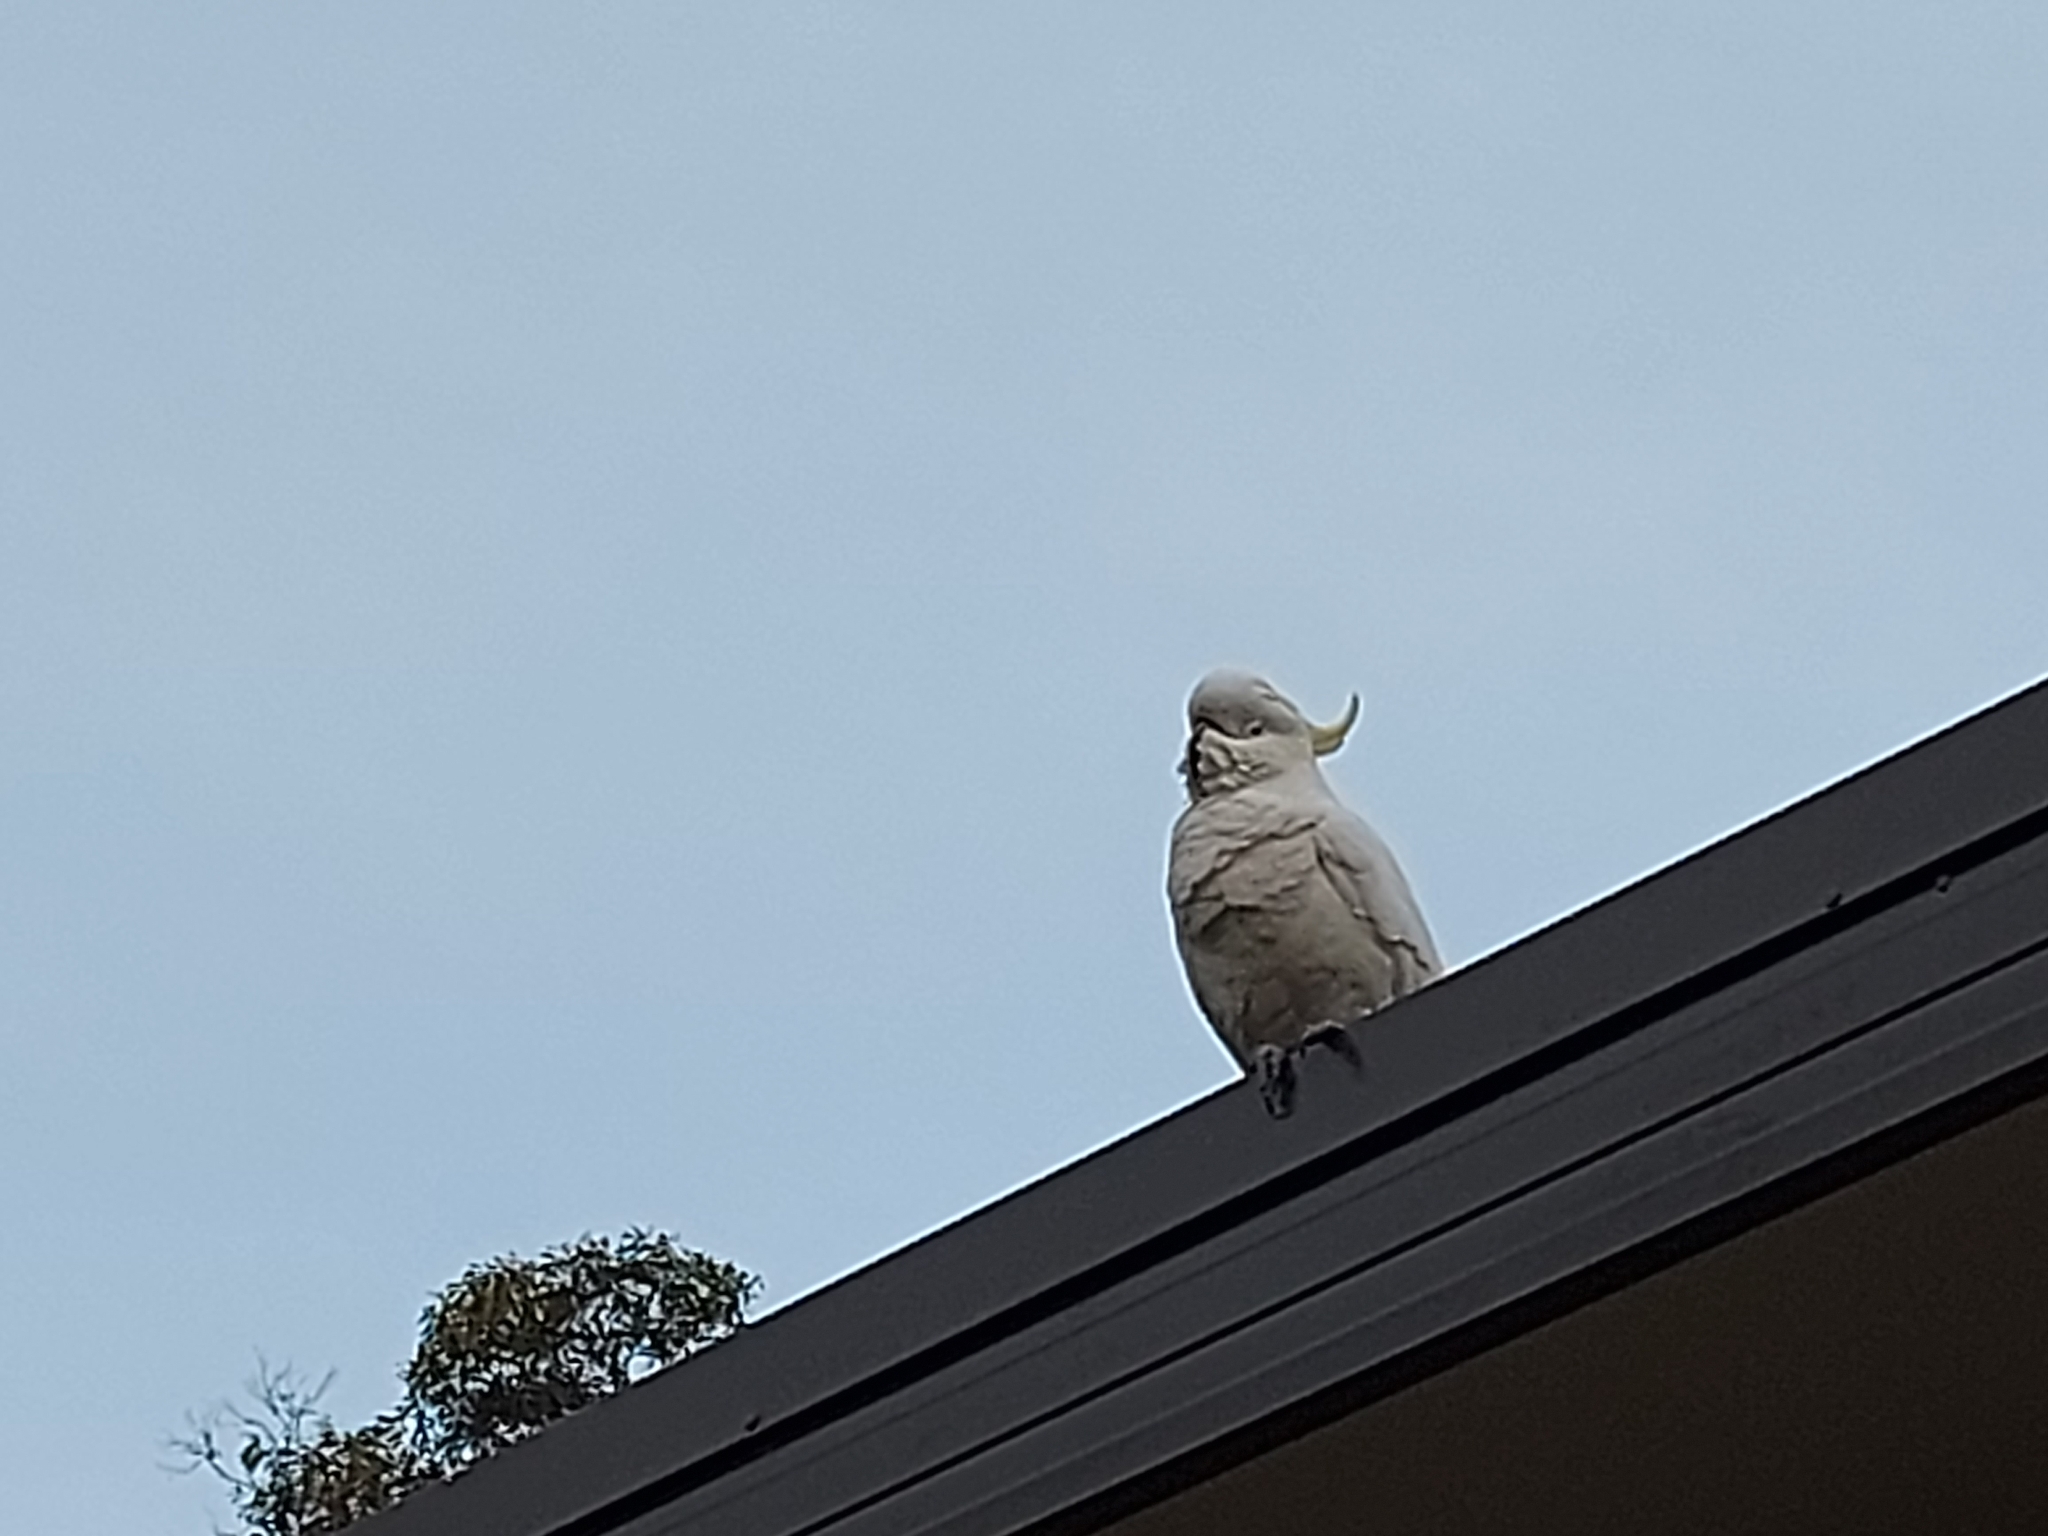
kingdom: Animalia
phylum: Chordata
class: Aves
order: Psittaciformes
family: Psittacidae
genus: Cacatua
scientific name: Cacatua galerita
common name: Sulphur-crested cockatoo
